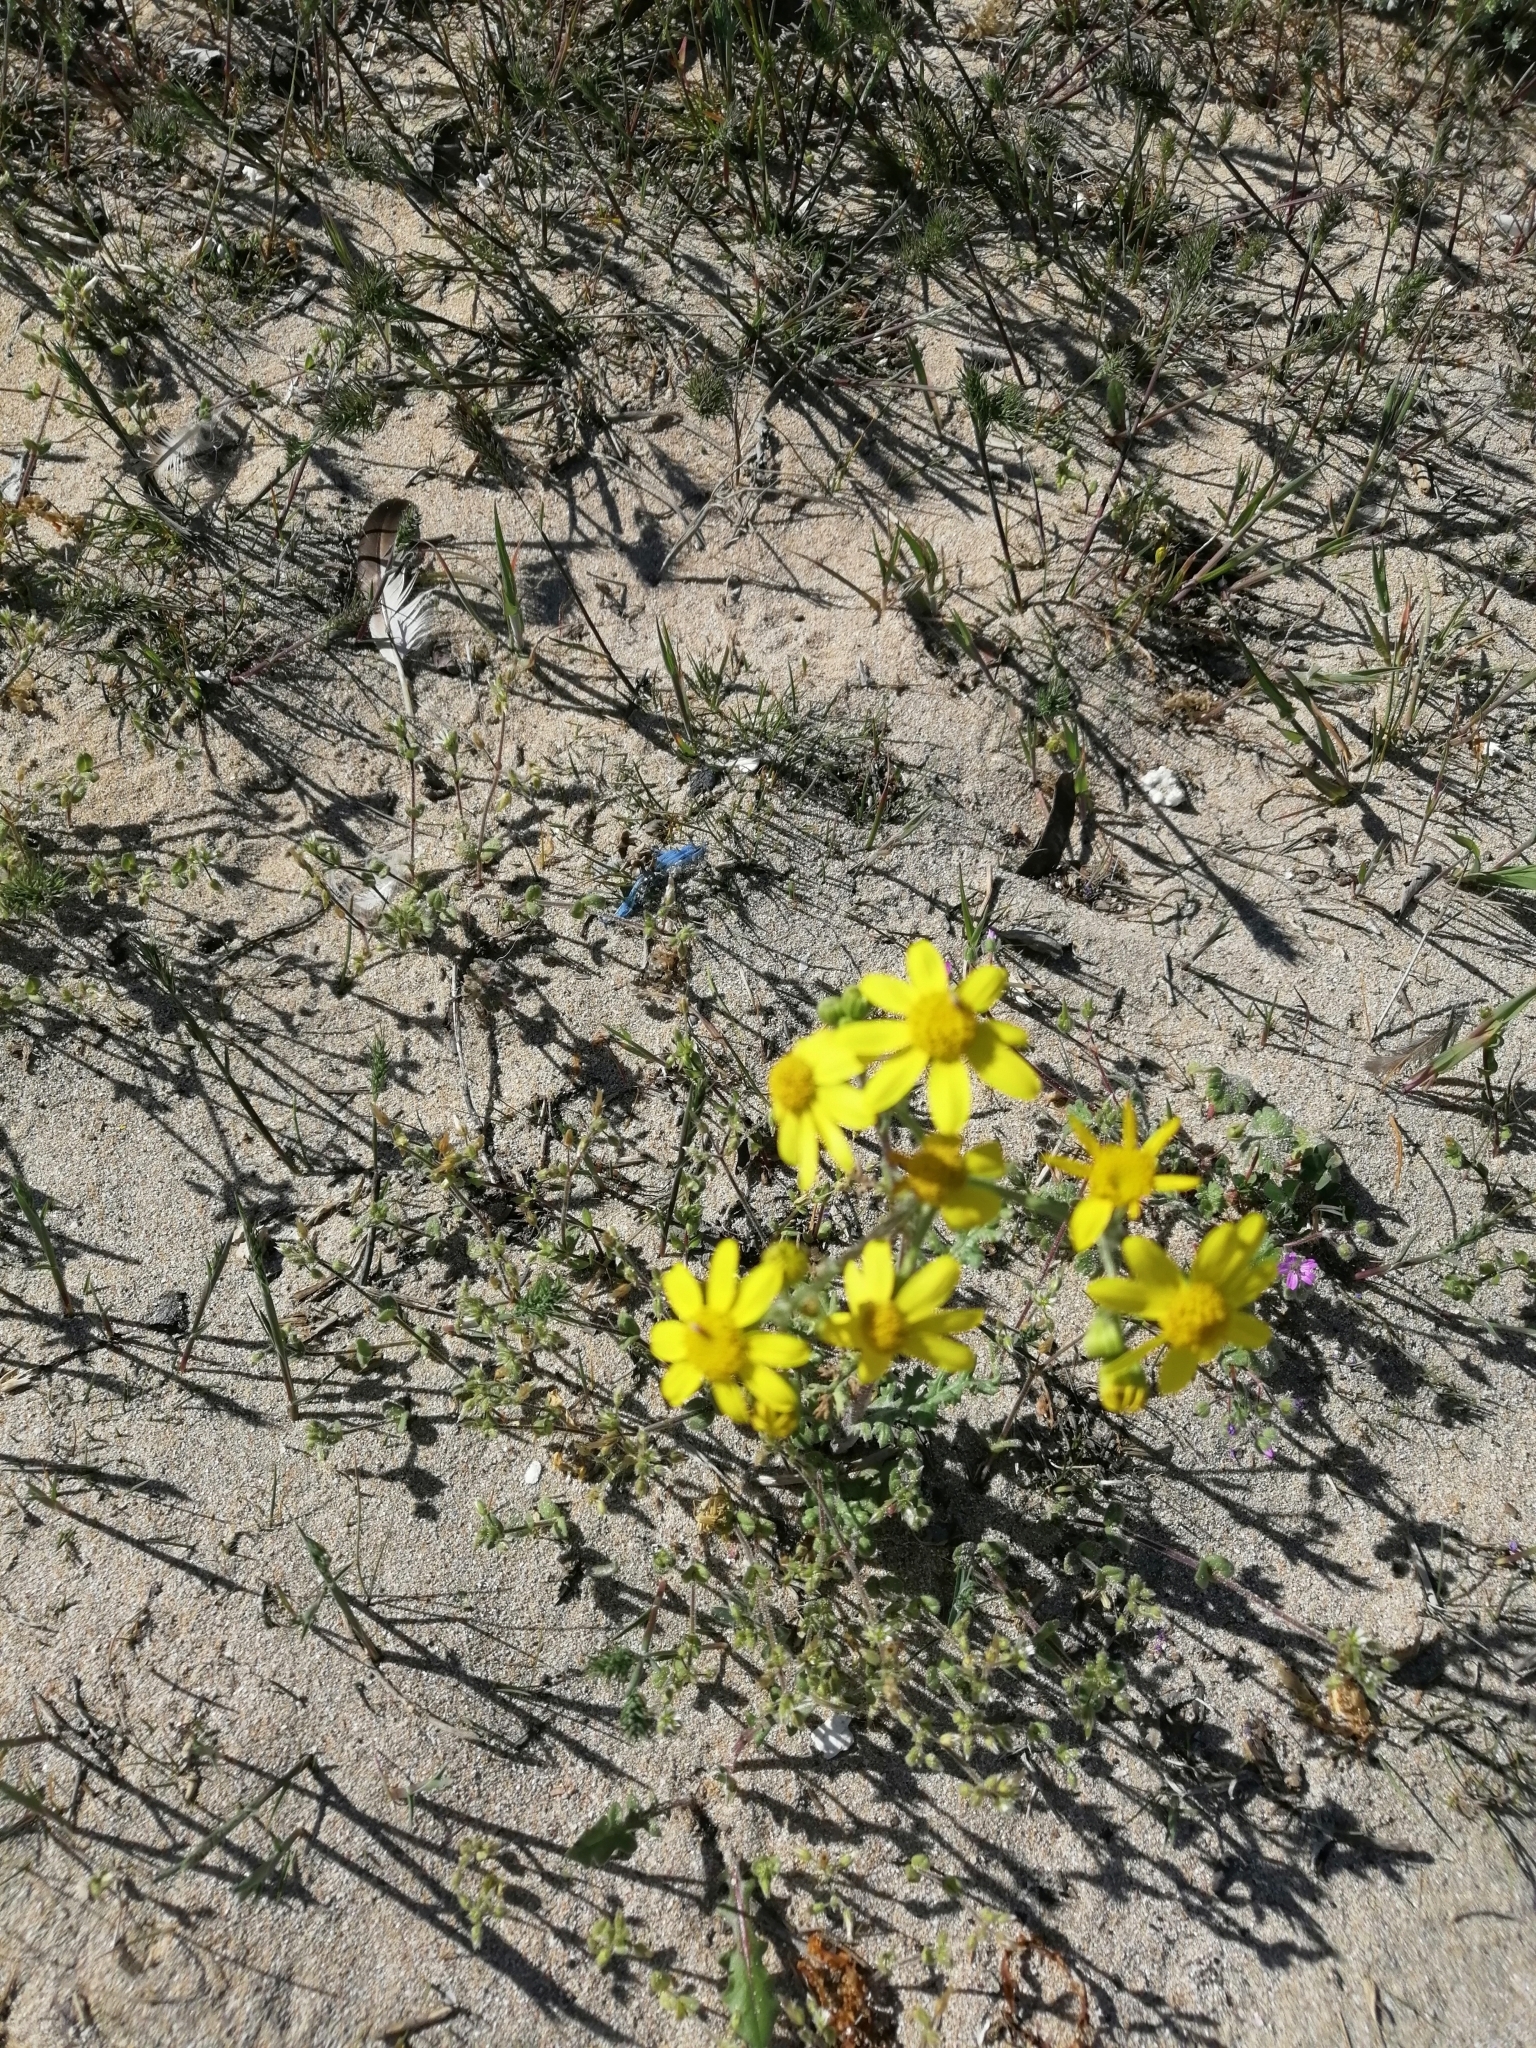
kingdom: Plantae
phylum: Tracheophyta
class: Magnoliopsida
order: Asterales
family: Asteraceae
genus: Senecio
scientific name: Senecio vernalis
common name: Eastern groundsel
